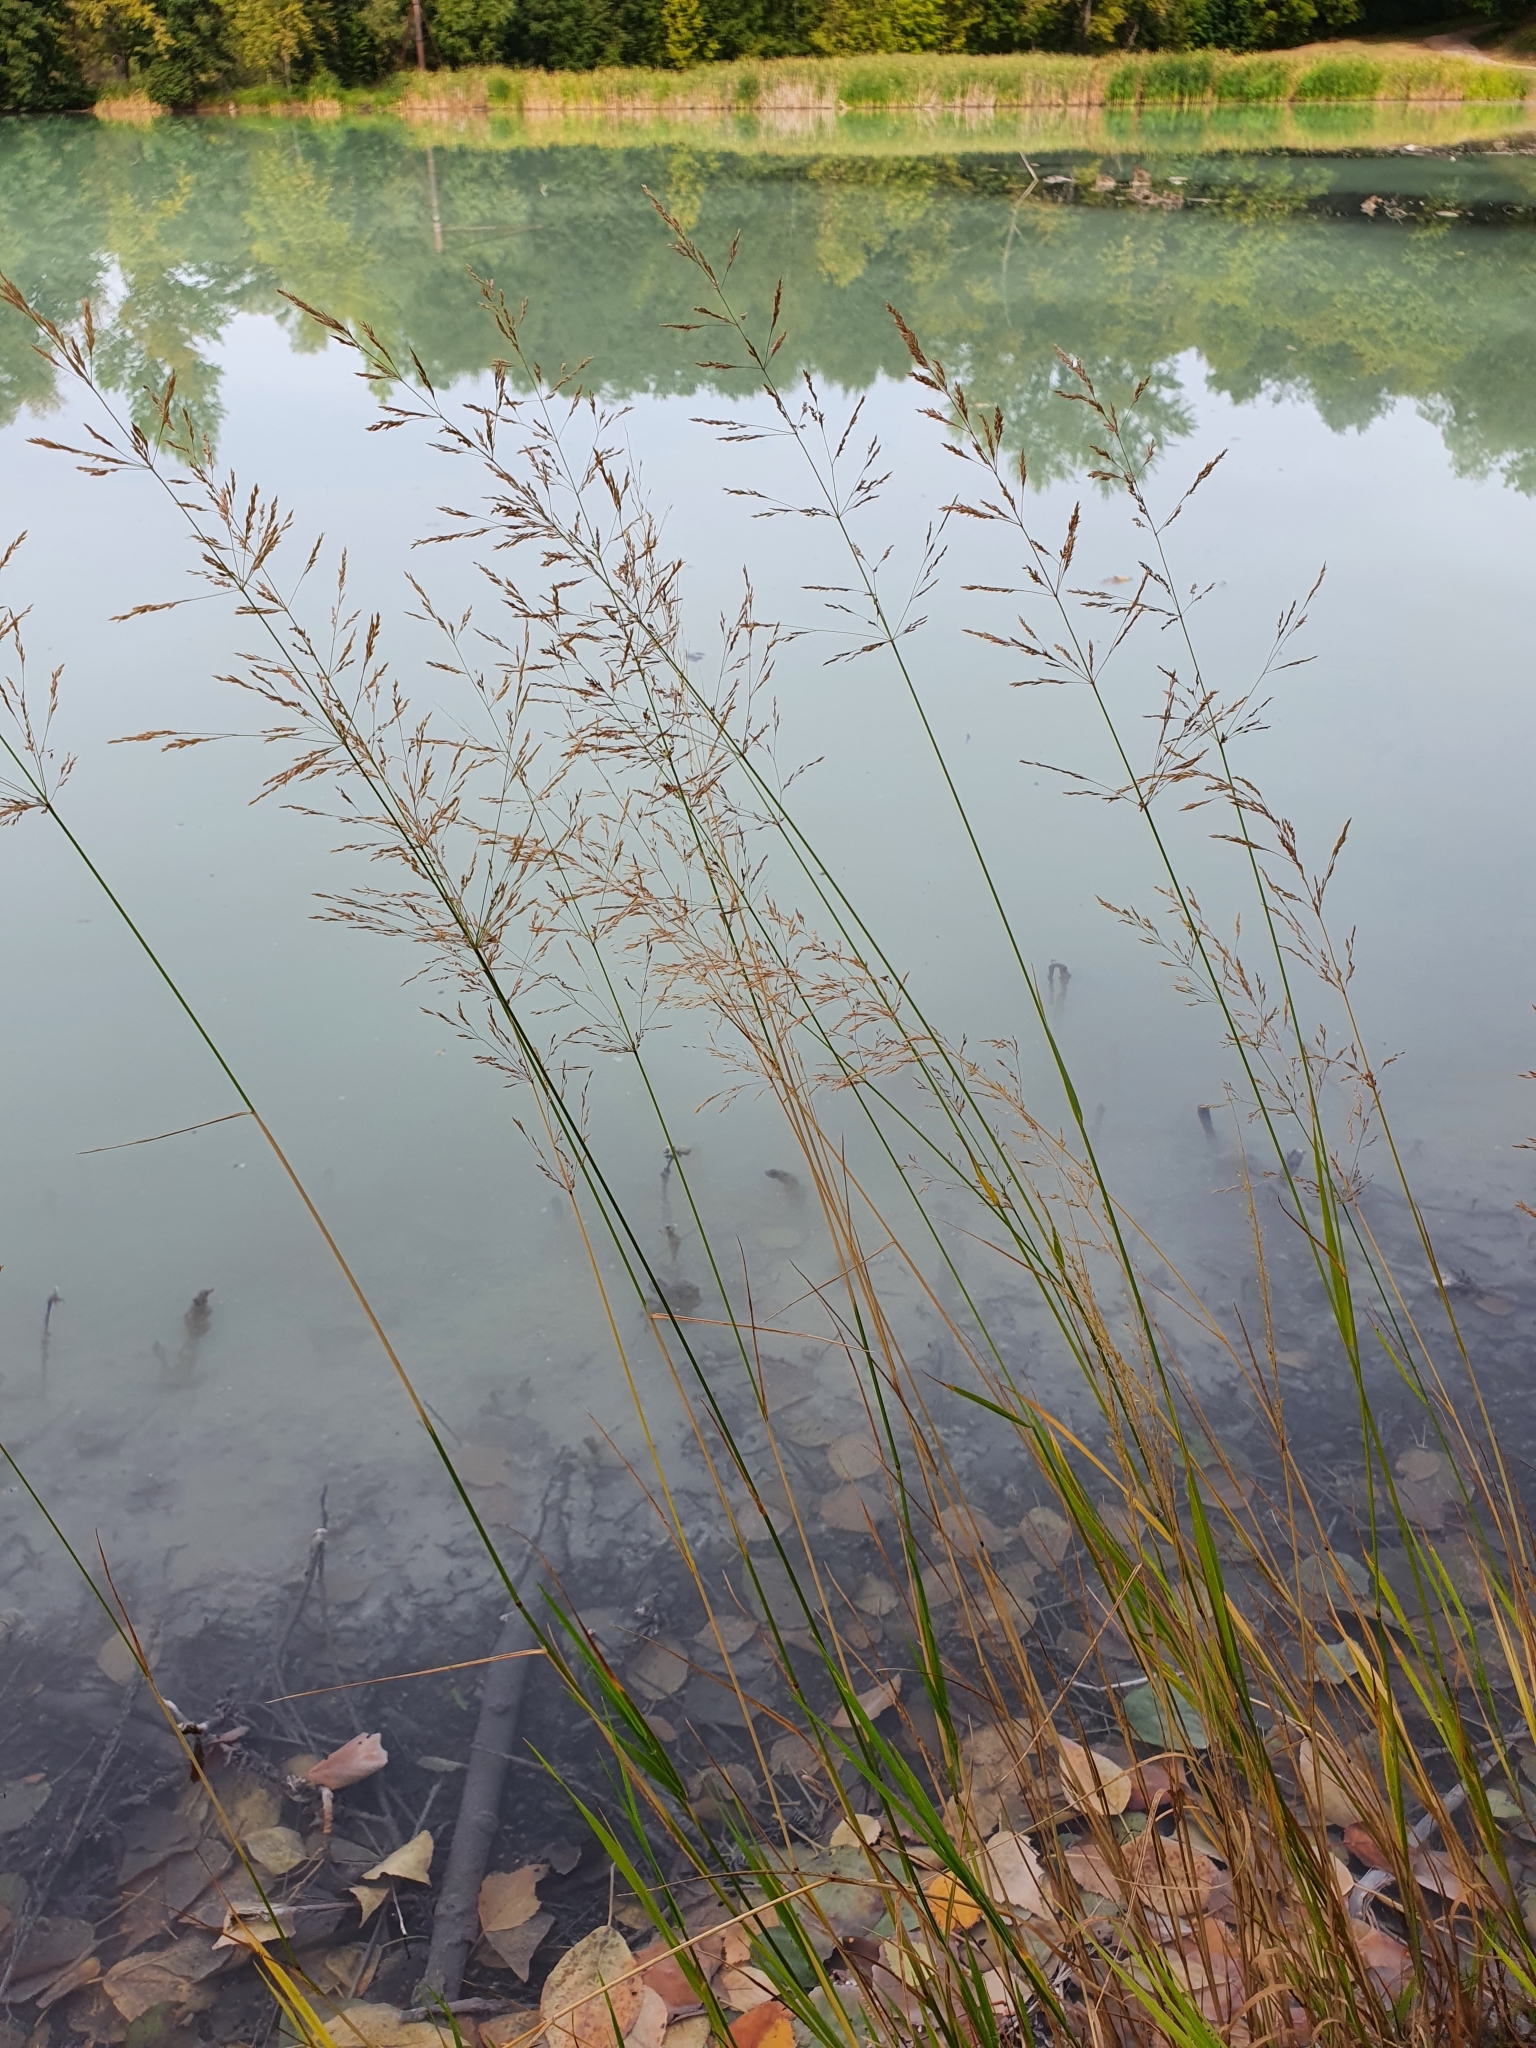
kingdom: Plantae
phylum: Tracheophyta
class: Liliopsida
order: Poales
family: Poaceae
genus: Agrostis
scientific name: Agrostis gigantea
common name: Black bent
